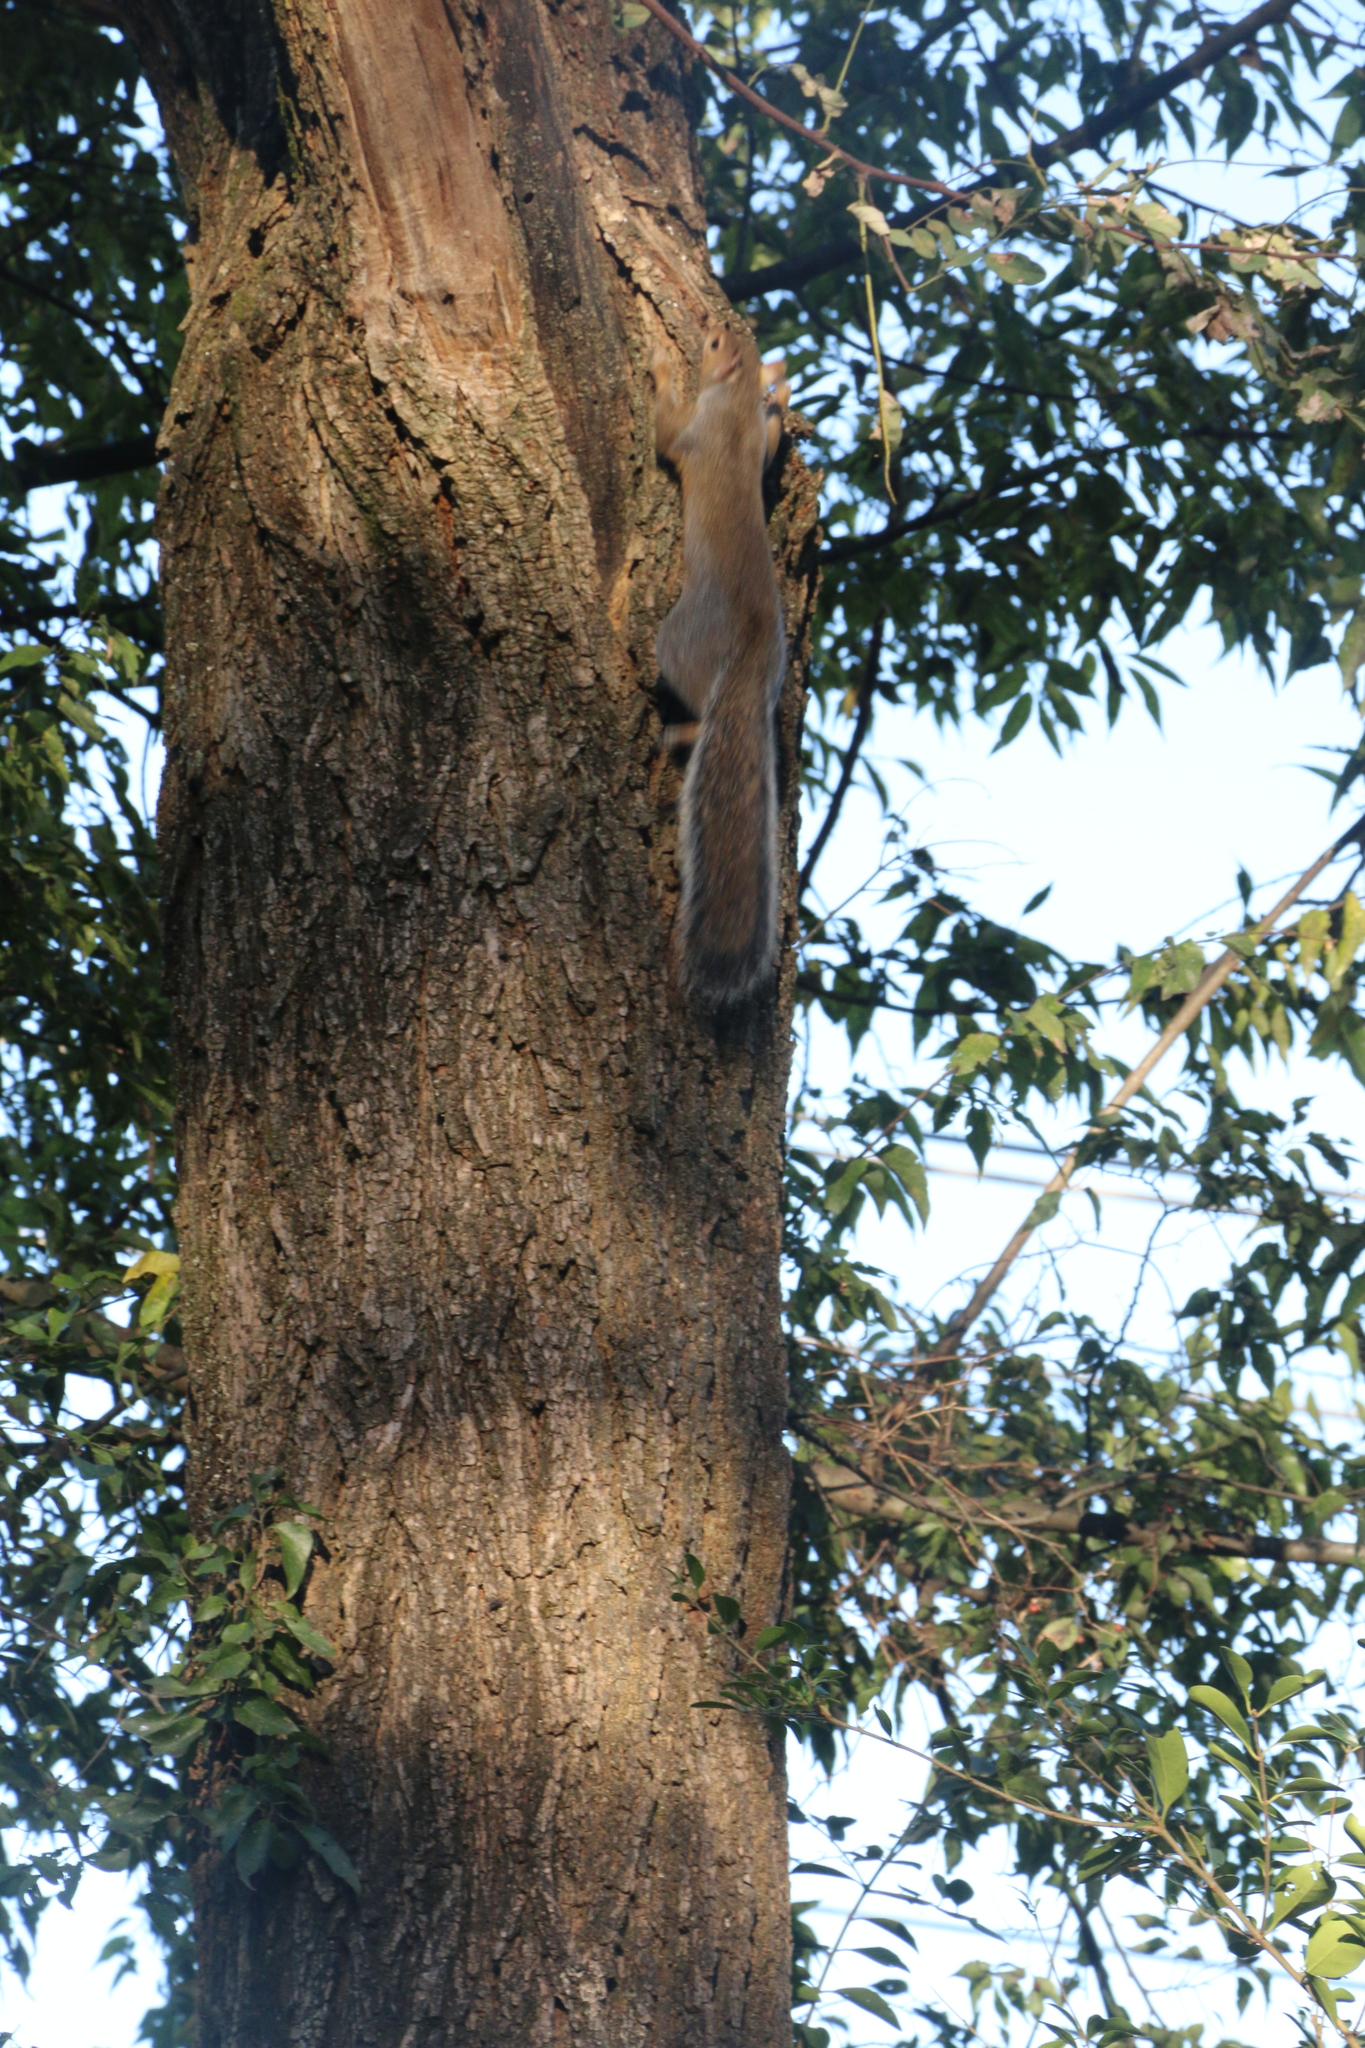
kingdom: Animalia
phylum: Chordata
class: Mammalia
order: Rodentia
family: Sciuridae
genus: Sciurus
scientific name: Sciurus carolinensis
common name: Eastern gray squirrel
